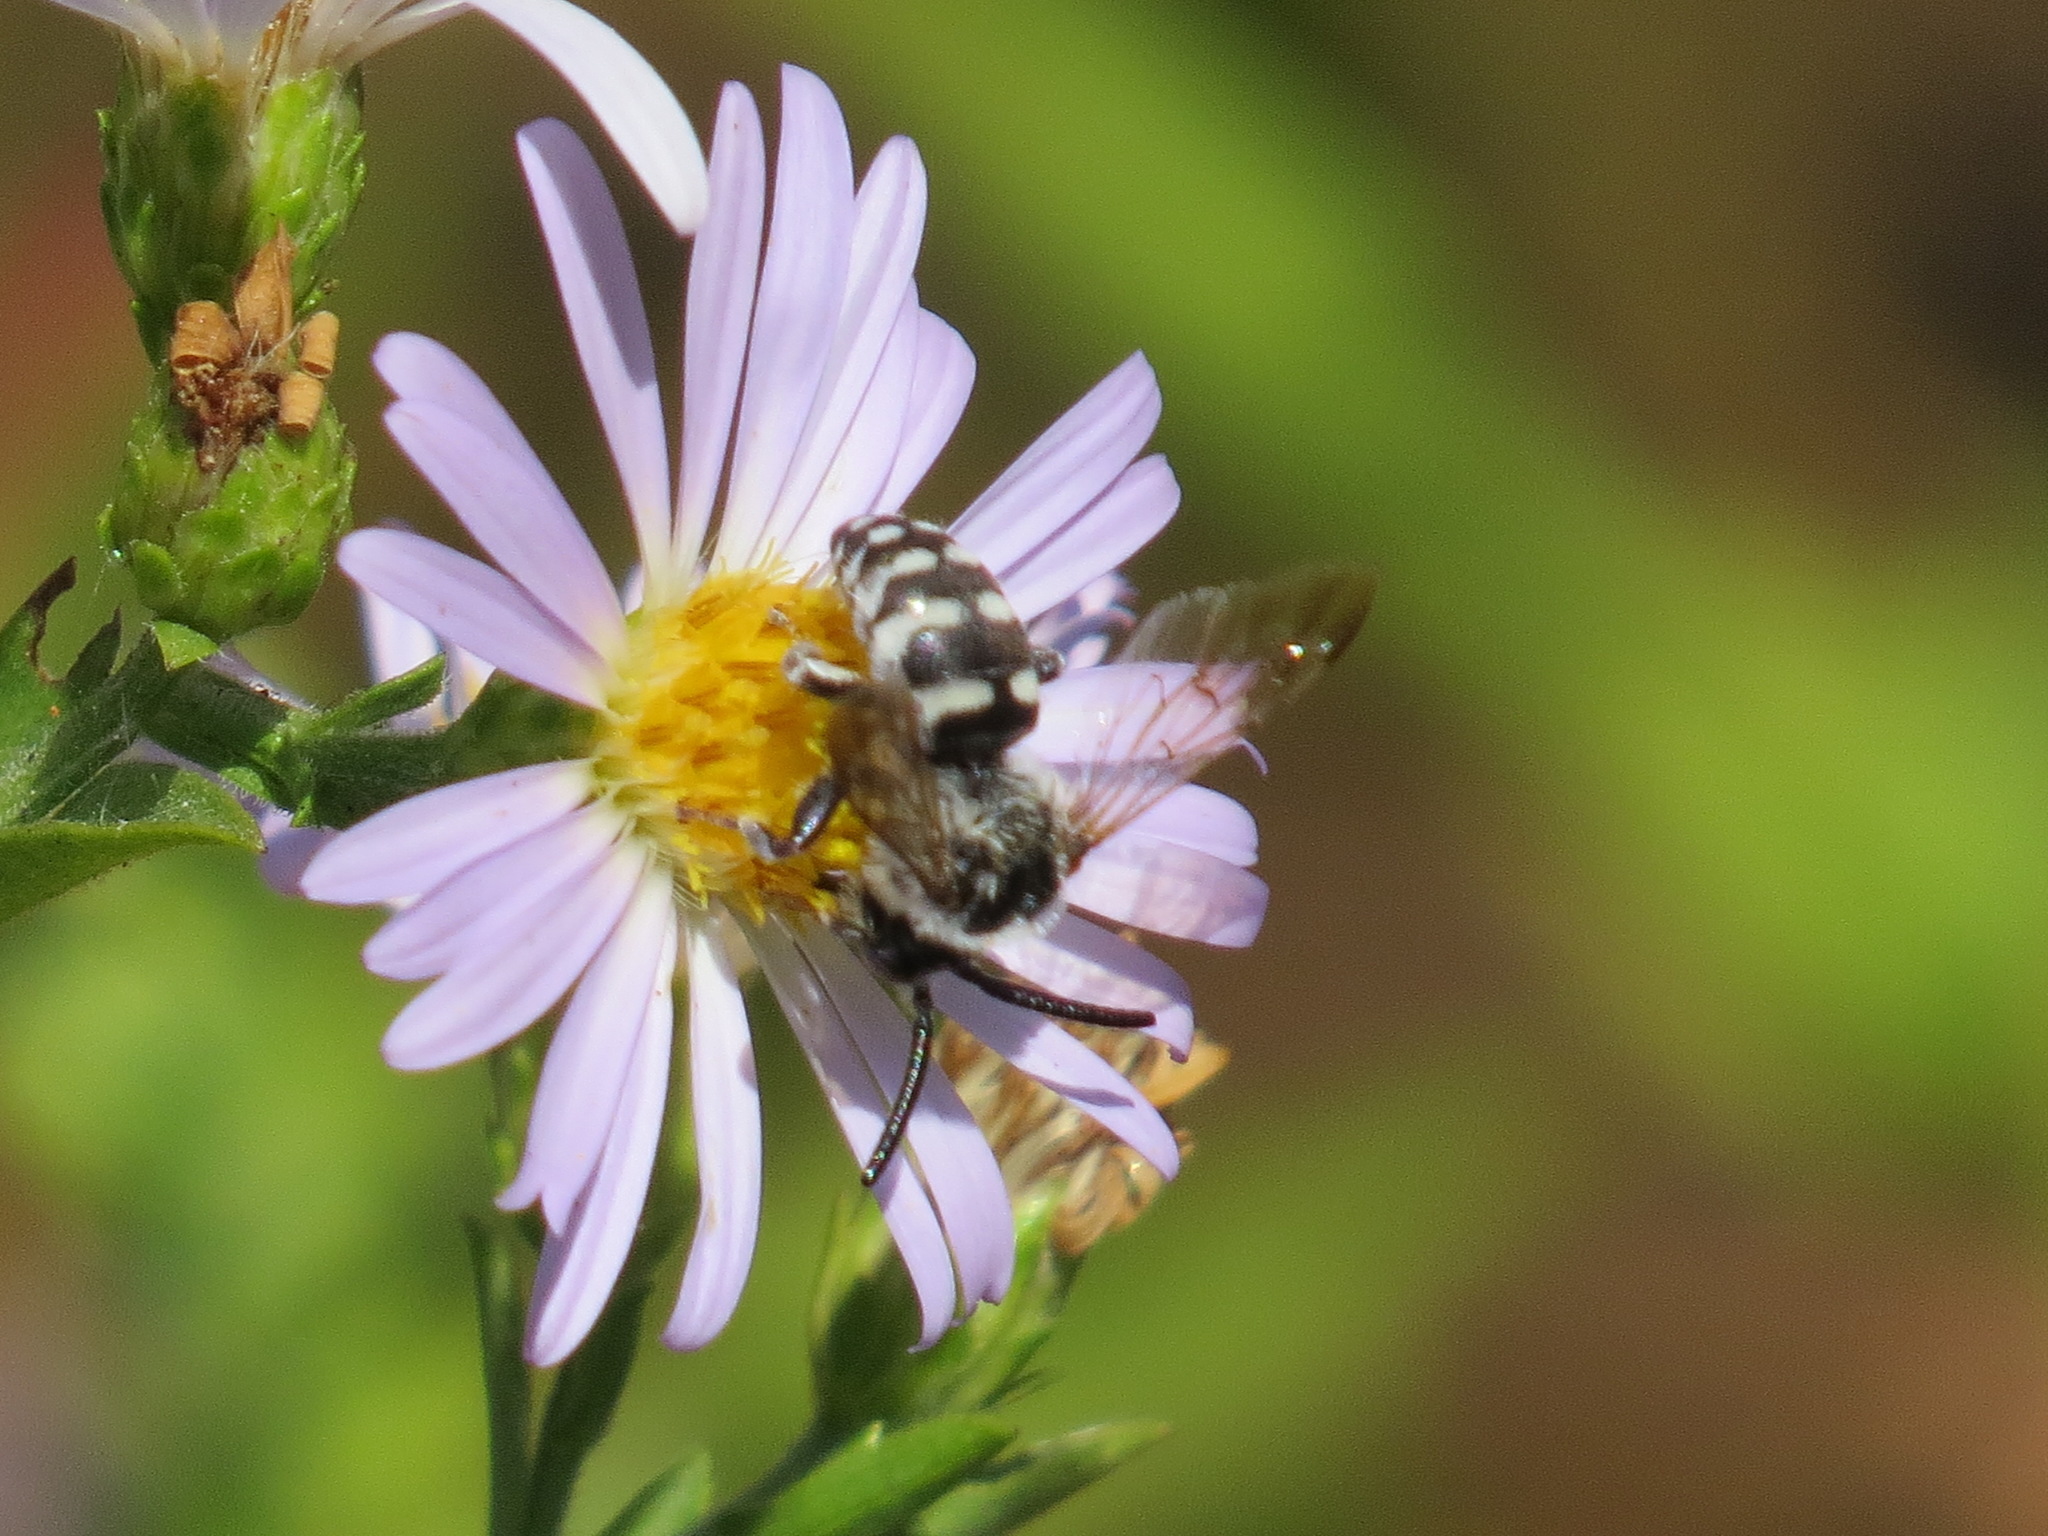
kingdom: Animalia
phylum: Arthropoda
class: Insecta
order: Hymenoptera
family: Apidae
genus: Brachymelecta
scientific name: Brachymelecta californica
